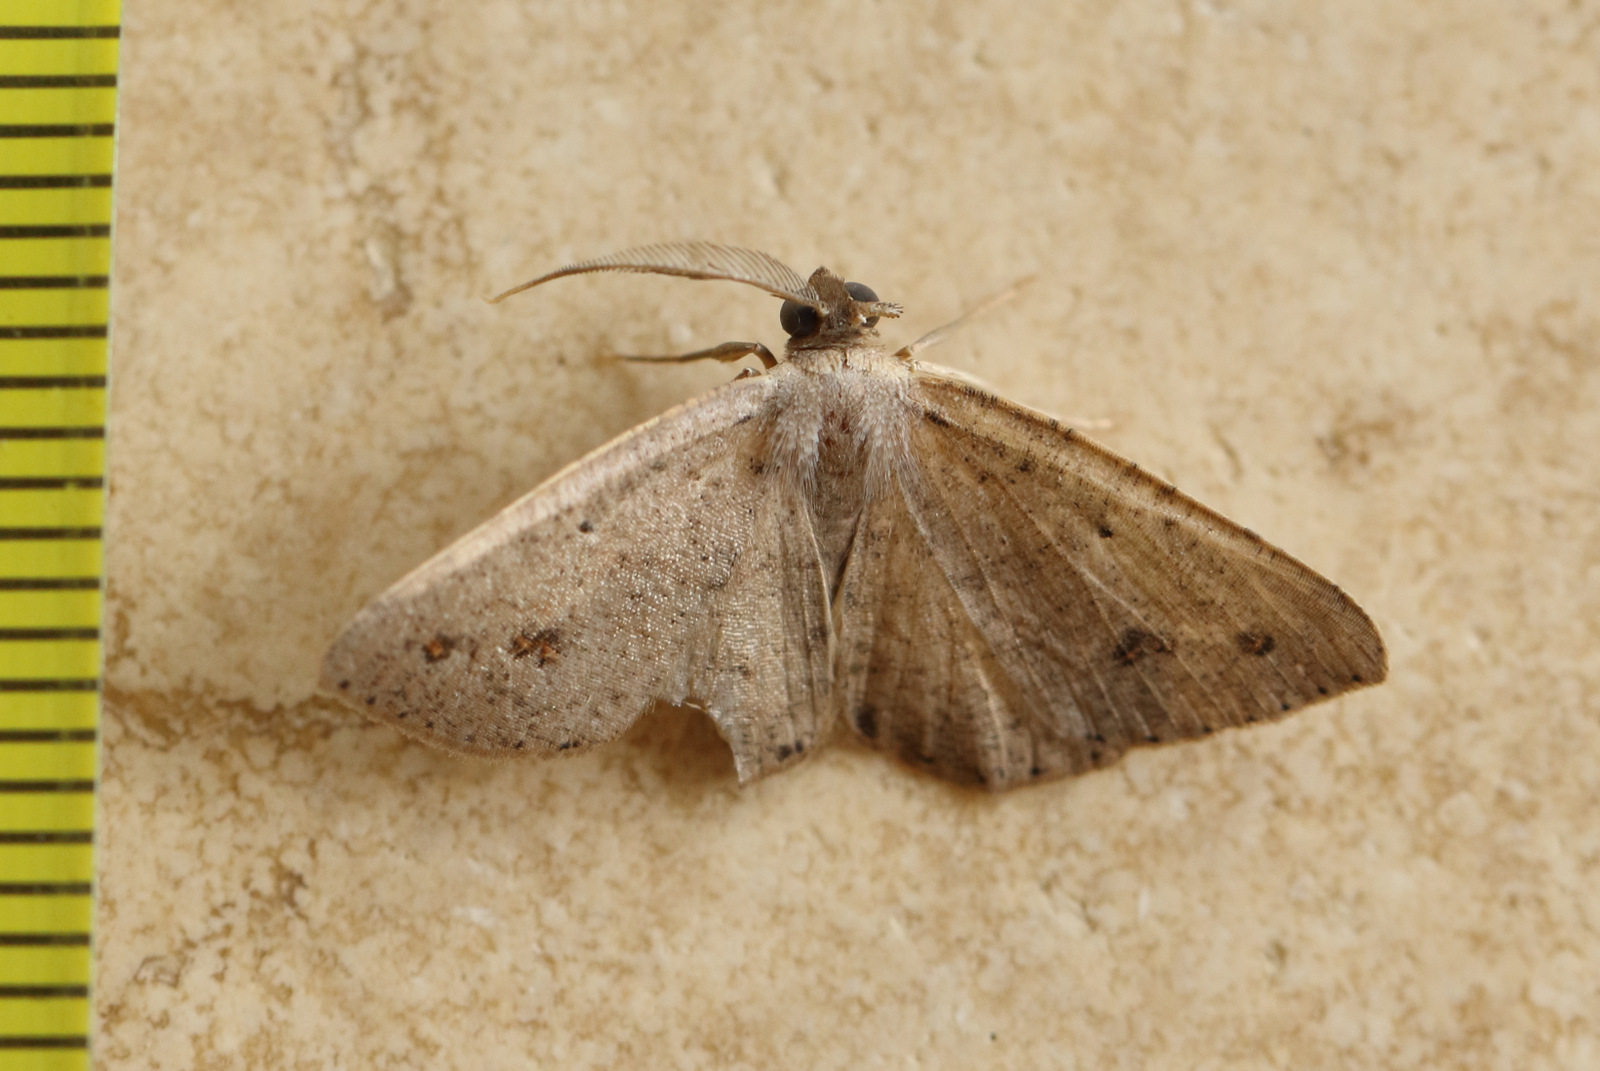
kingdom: Animalia
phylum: Arthropoda
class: Insecta
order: Lepidoptera
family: Geometridae
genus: Casbia
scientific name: Casbia rectaria
